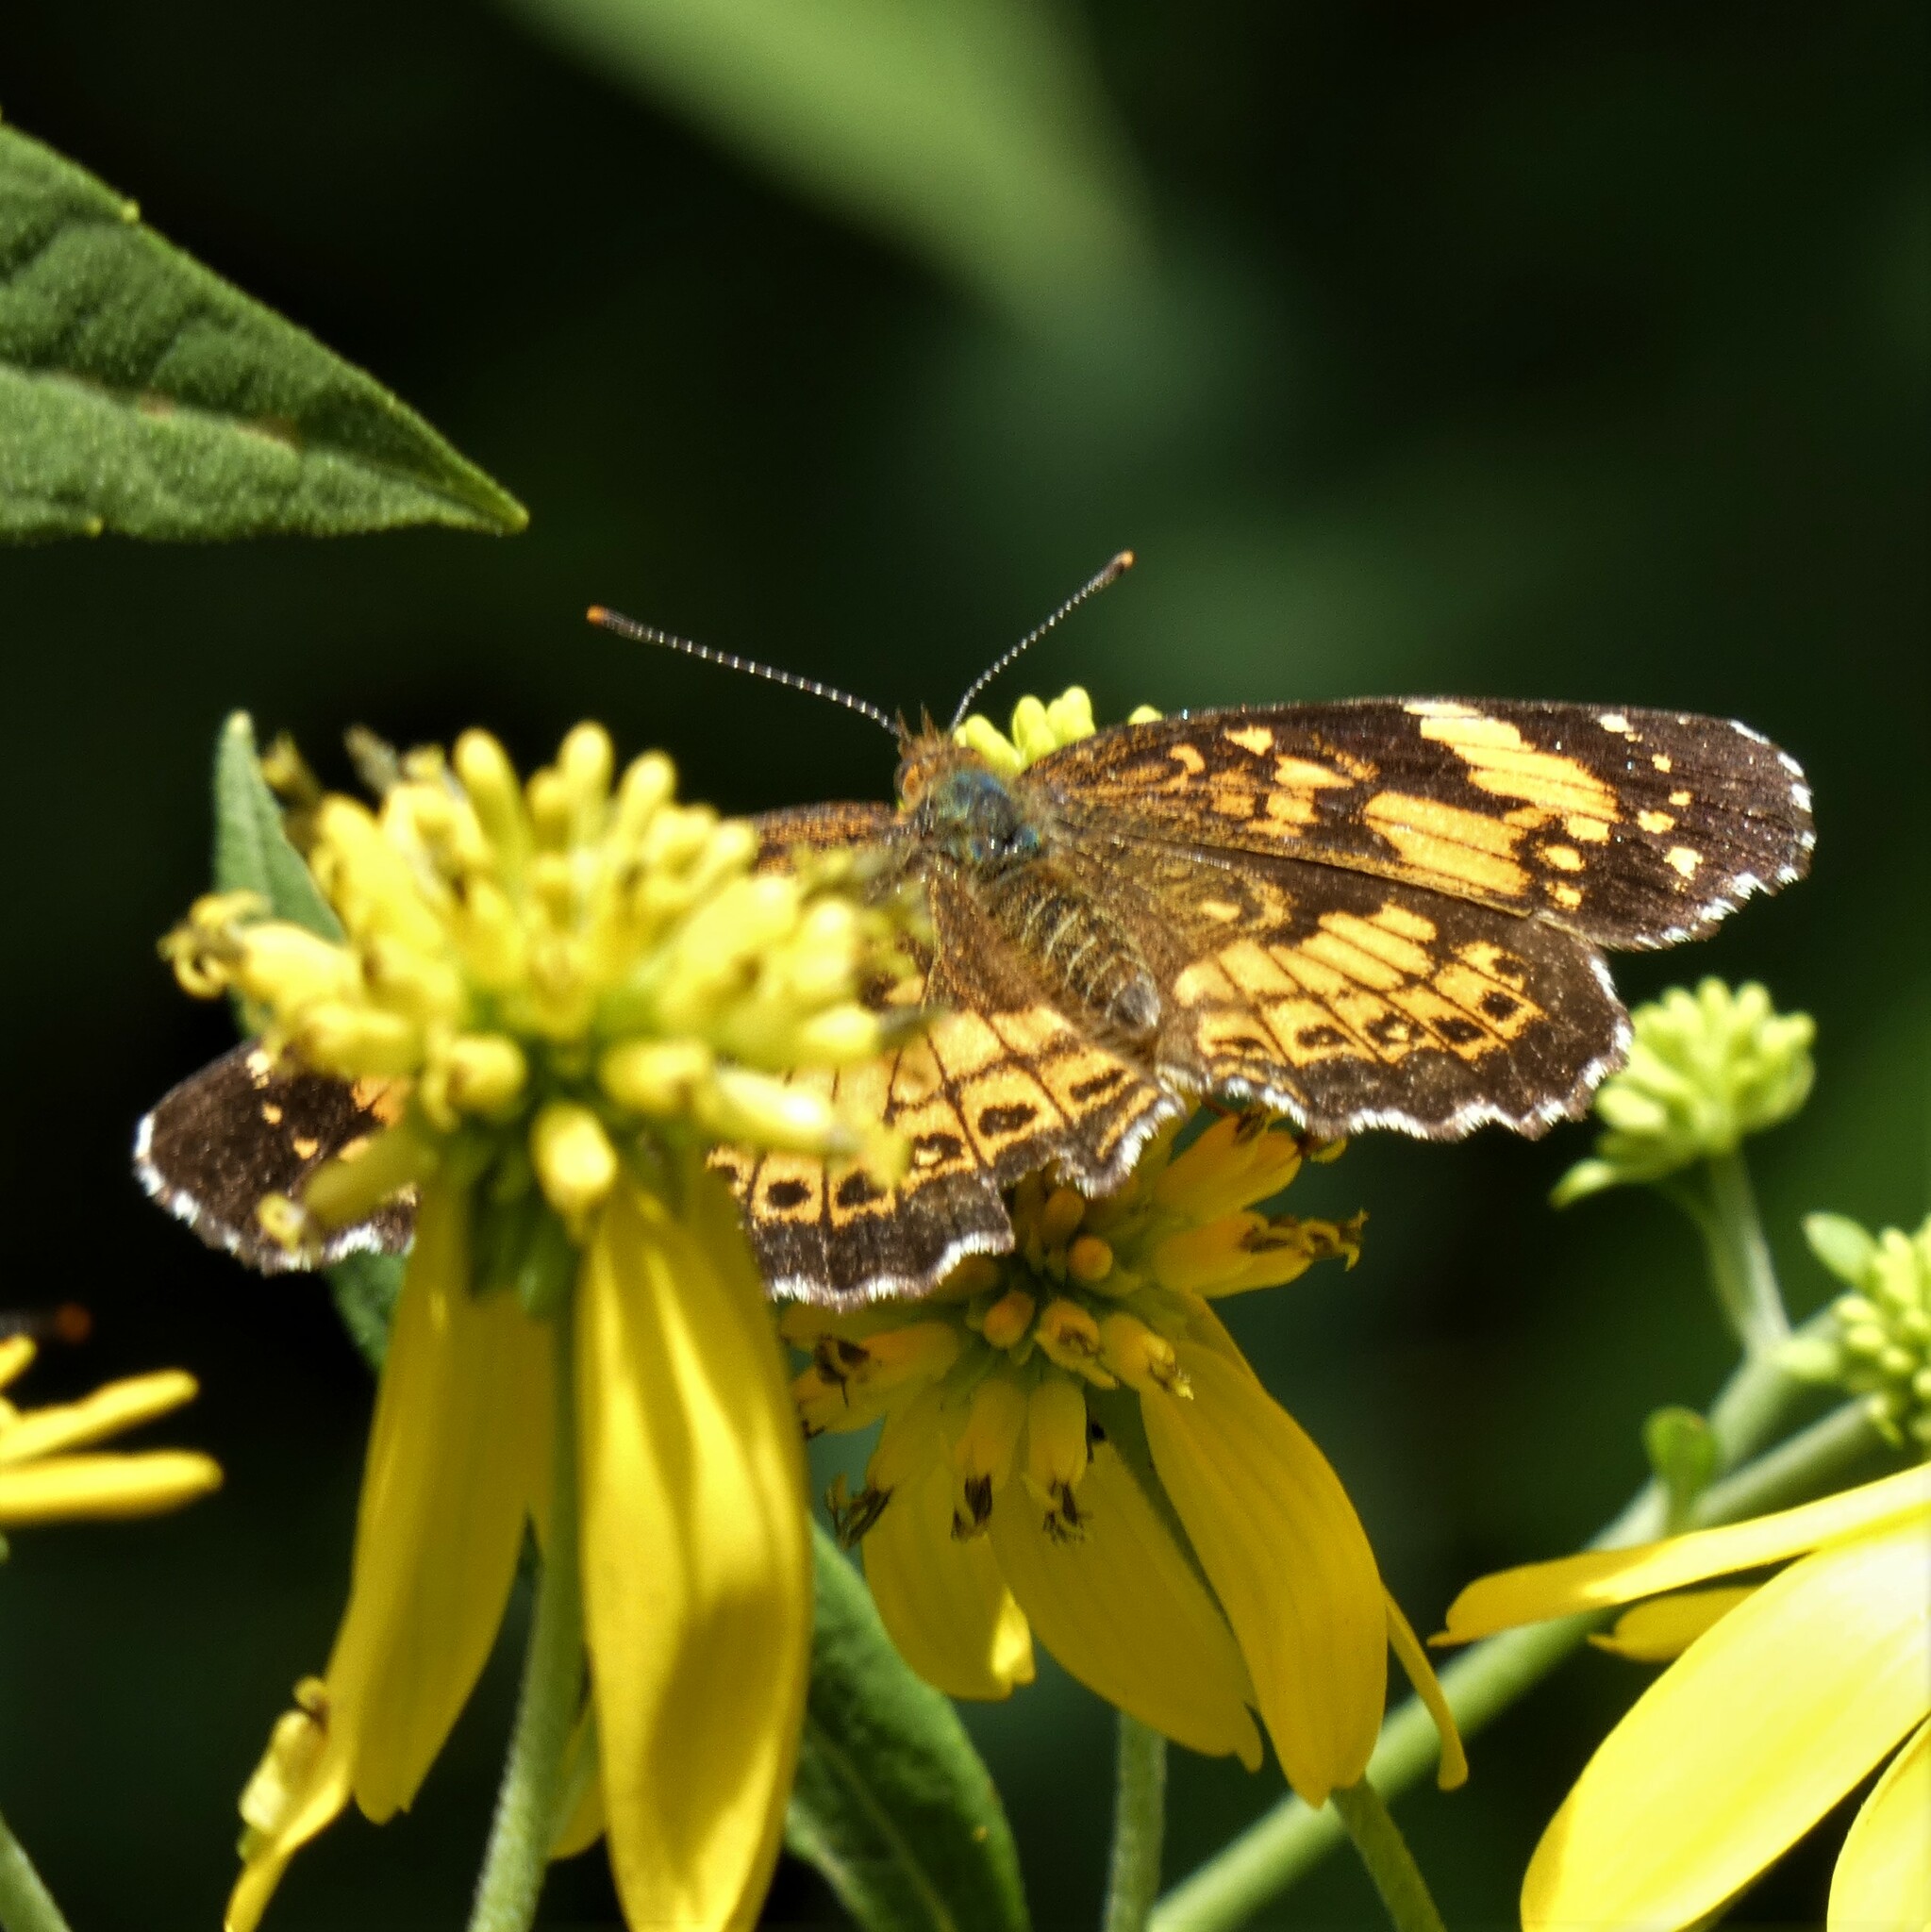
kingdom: Animalia
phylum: Arthropoda
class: Insecta
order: Lepidoptera
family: Nymphalidae
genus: Chlosyne
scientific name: Chlosyne nycteis
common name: Silvery checkerspot
